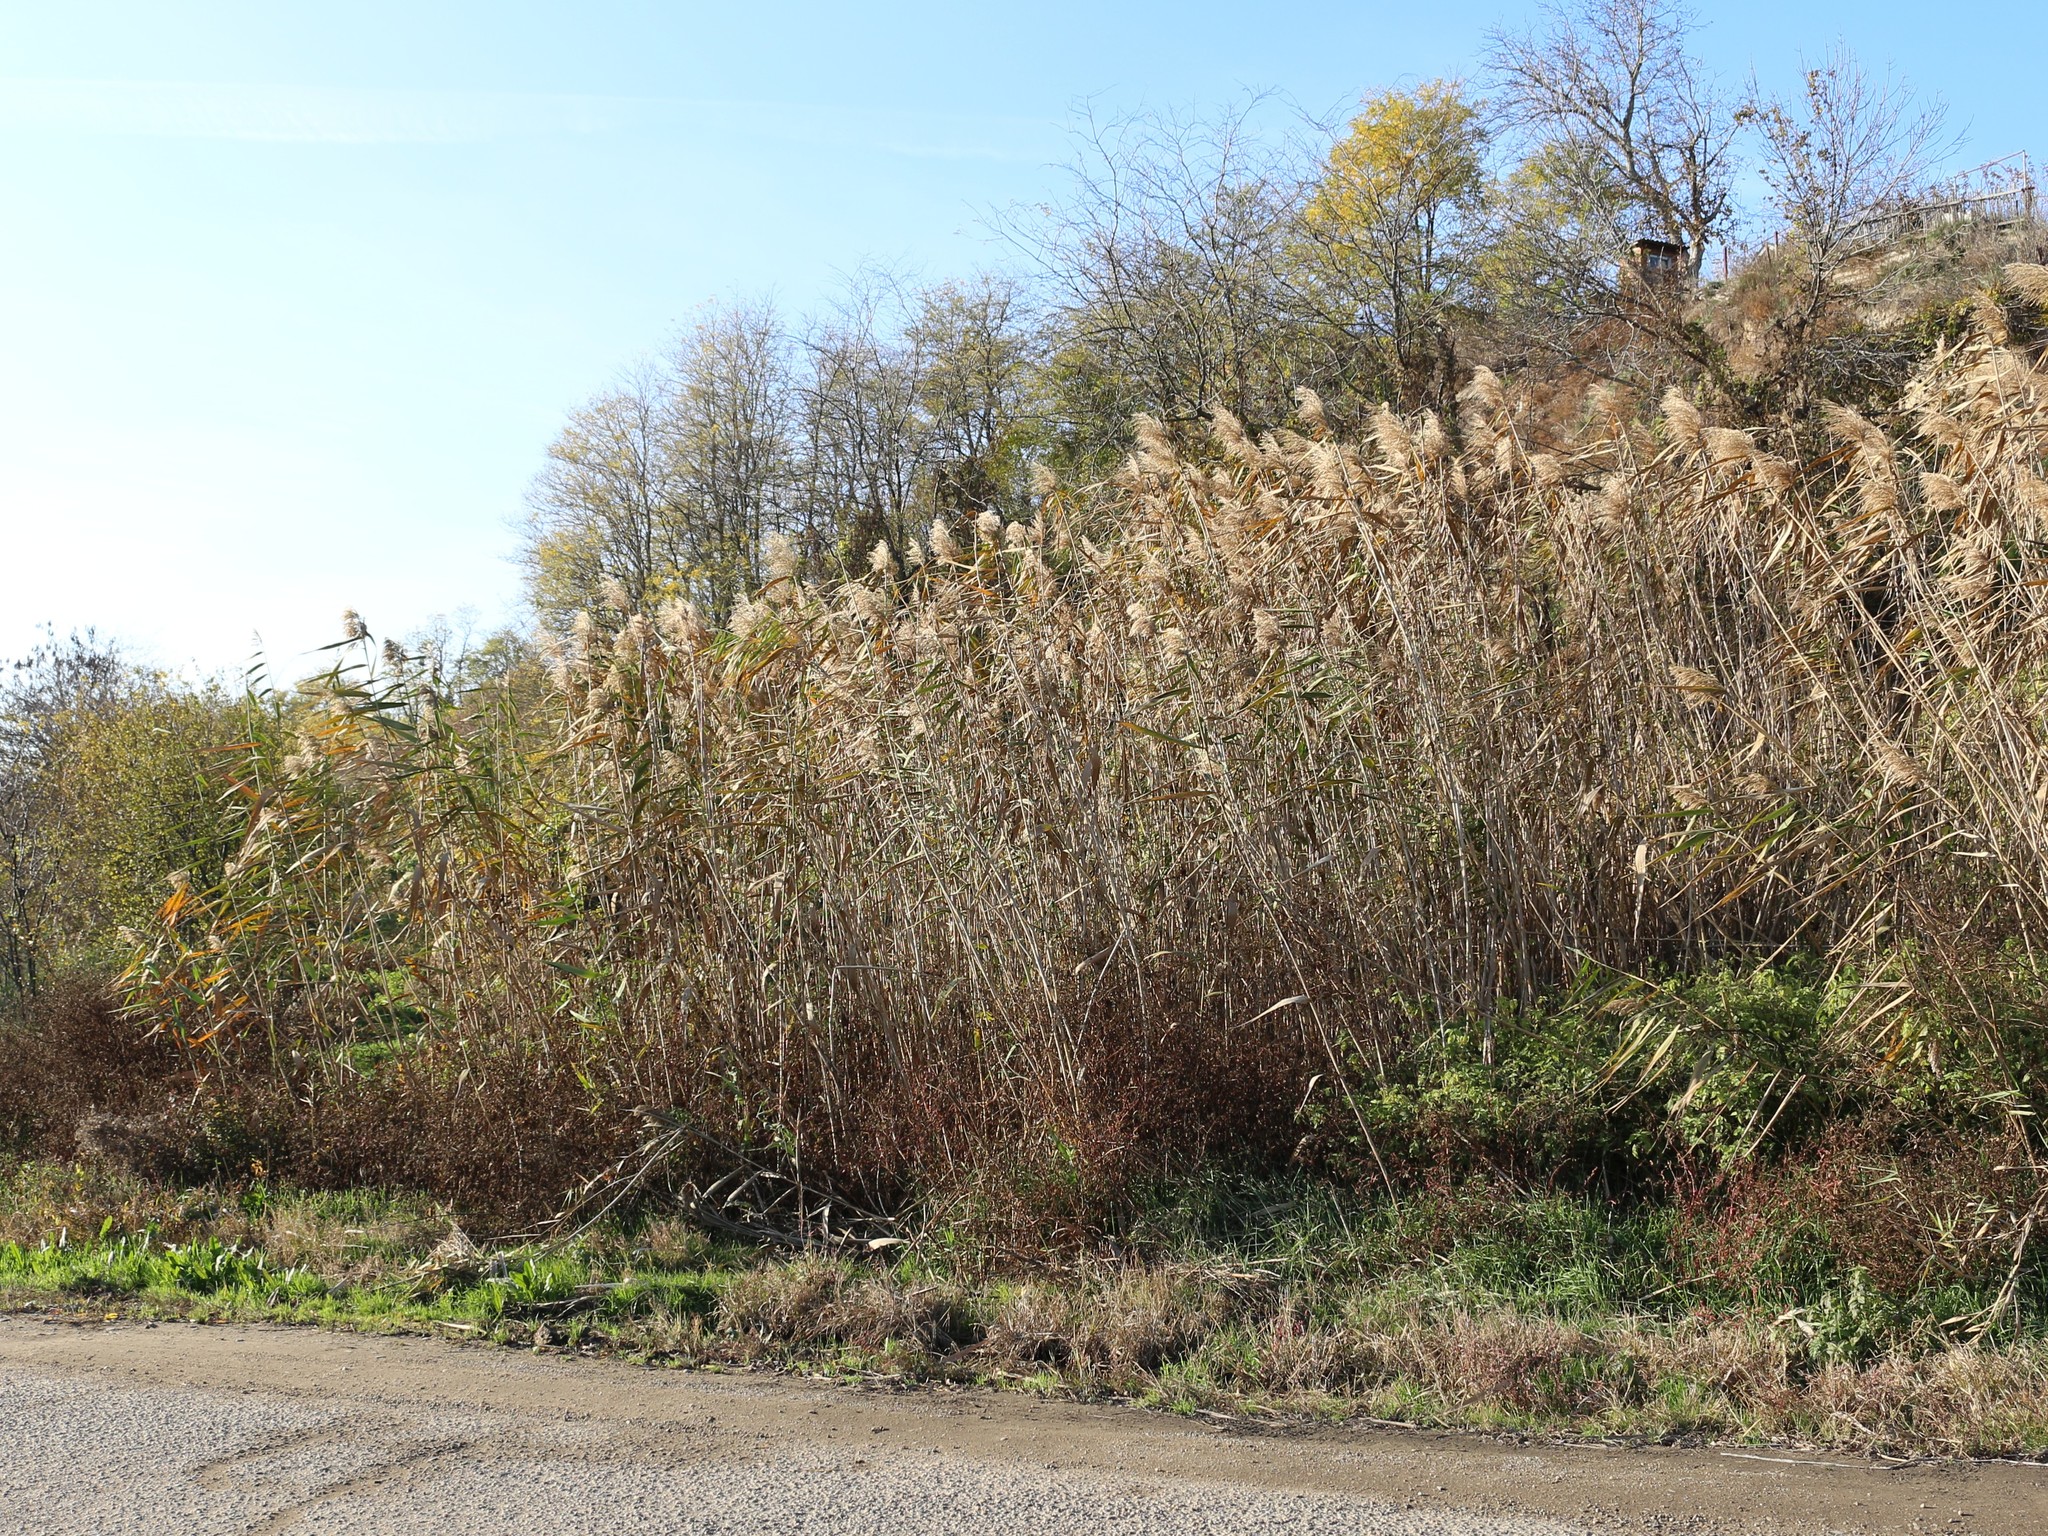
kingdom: Plantae
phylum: Tracheophyta
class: Liliopsida
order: Poales
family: Poaceae
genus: Phragmites
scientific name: Phragmites australis
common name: Common reed
